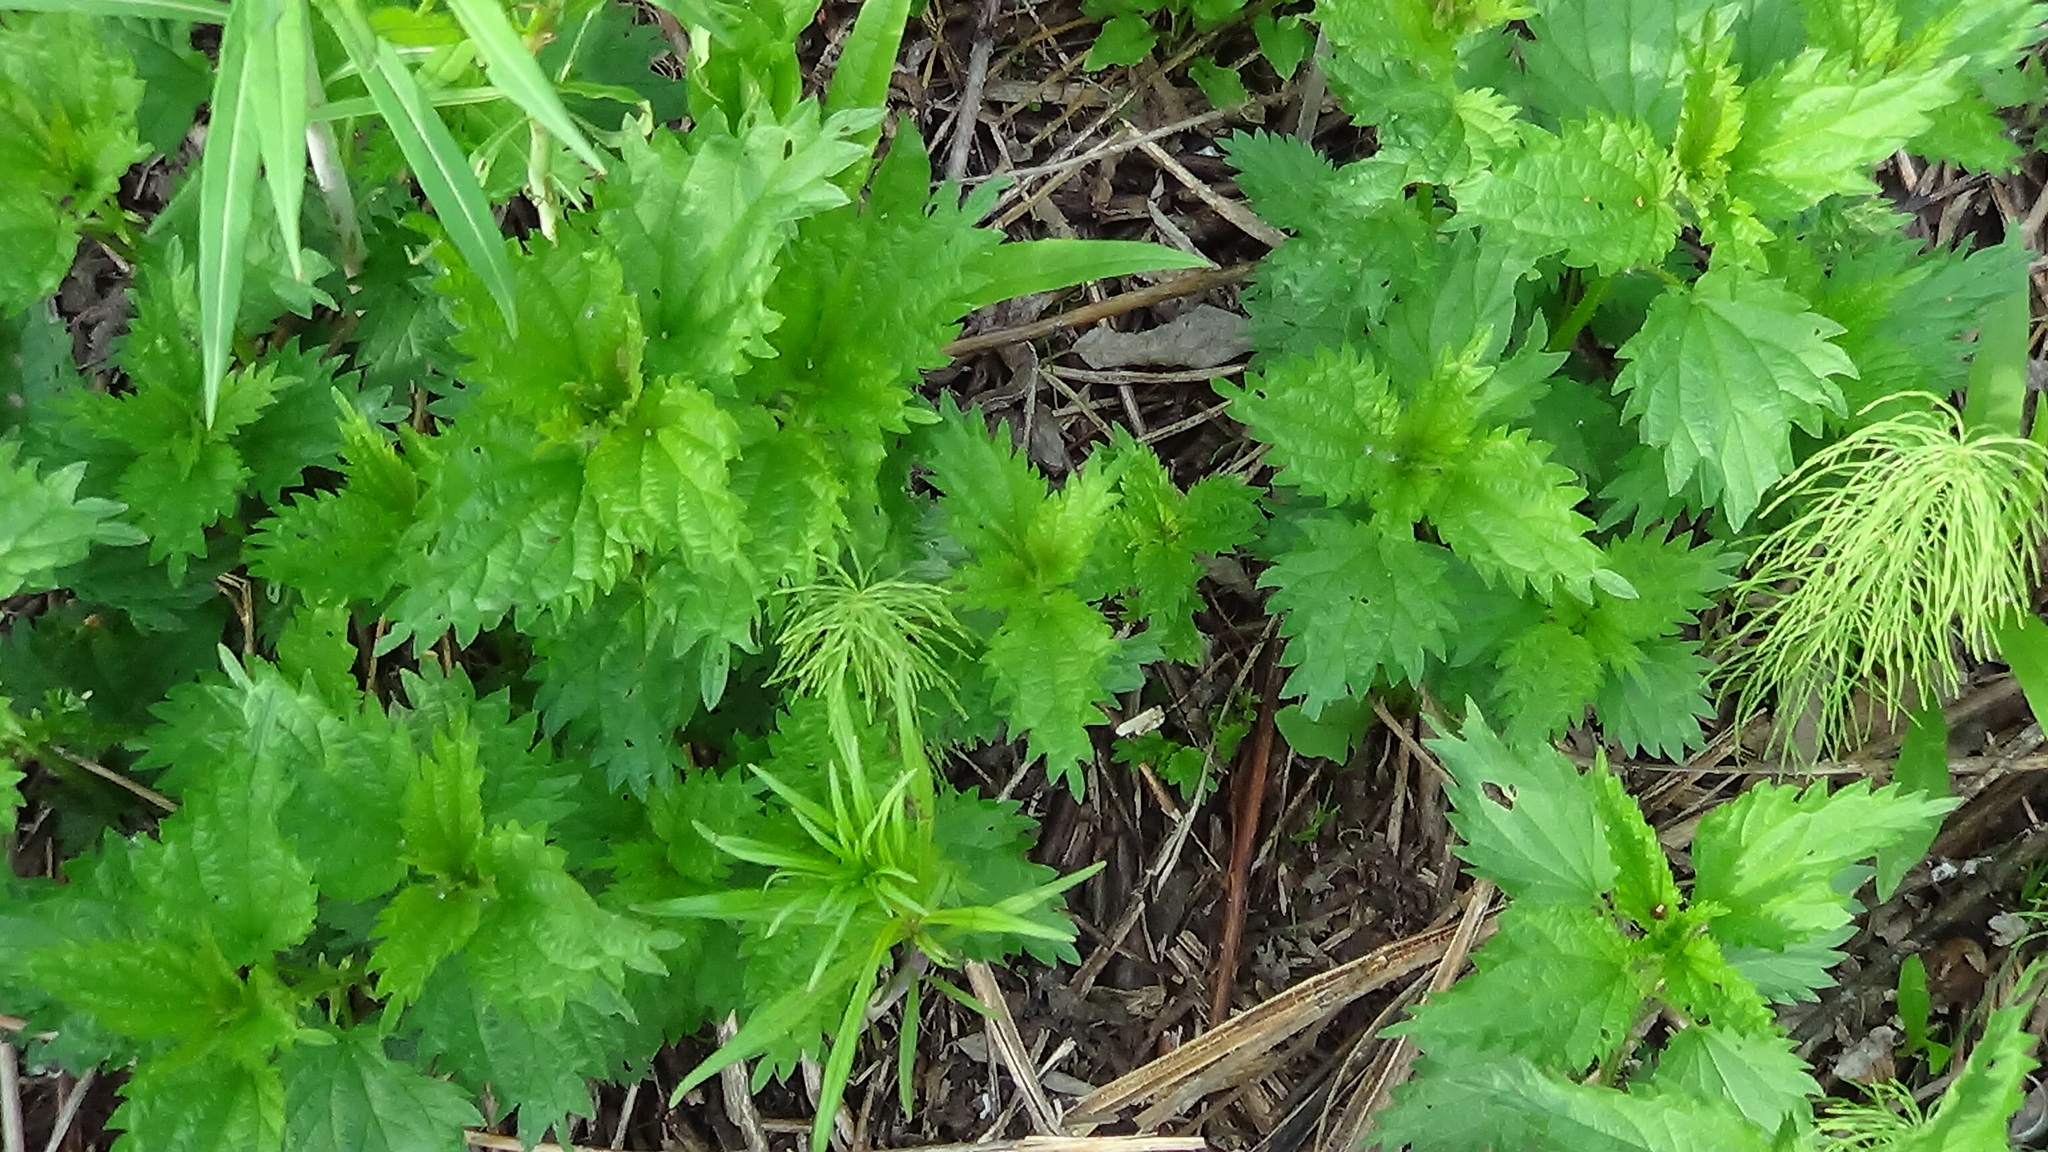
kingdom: Plantae
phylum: Tracheophyta
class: Magnoliopsida
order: Rosales
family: Urticaceae
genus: Urtica
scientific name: Urtica dioica
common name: Common nettle
